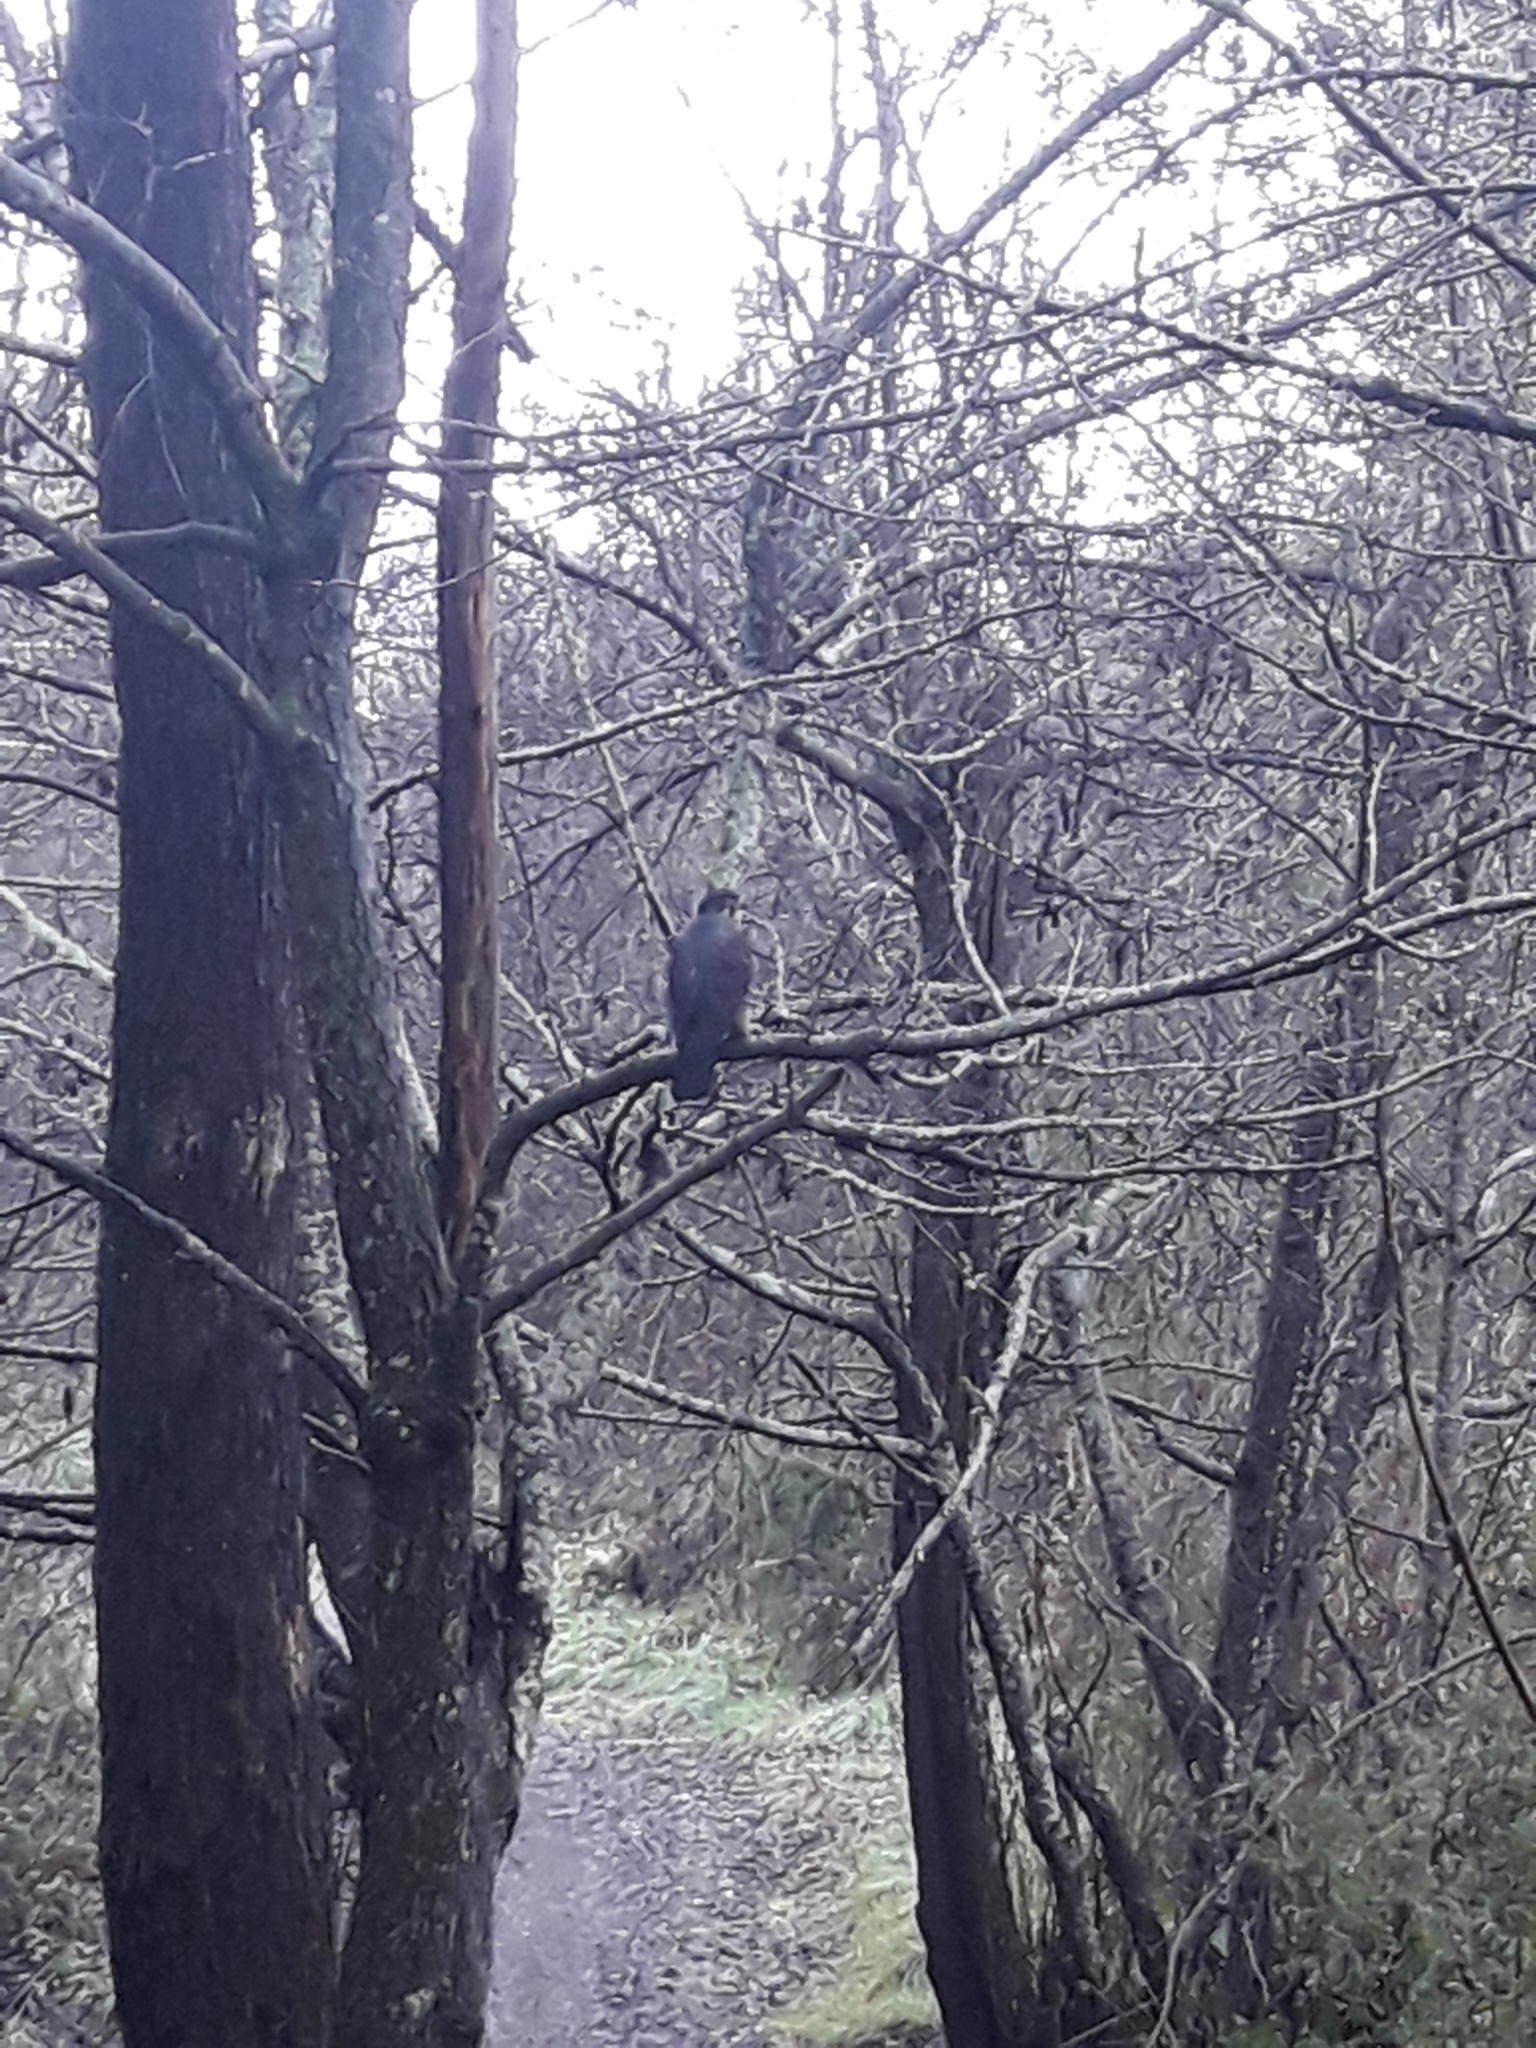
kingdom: Animalia
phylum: Chordata
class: Aves
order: Falconiformes
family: Falconidae
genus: Falco
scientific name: Falco novaeseelandiae
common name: New zealand falcon
